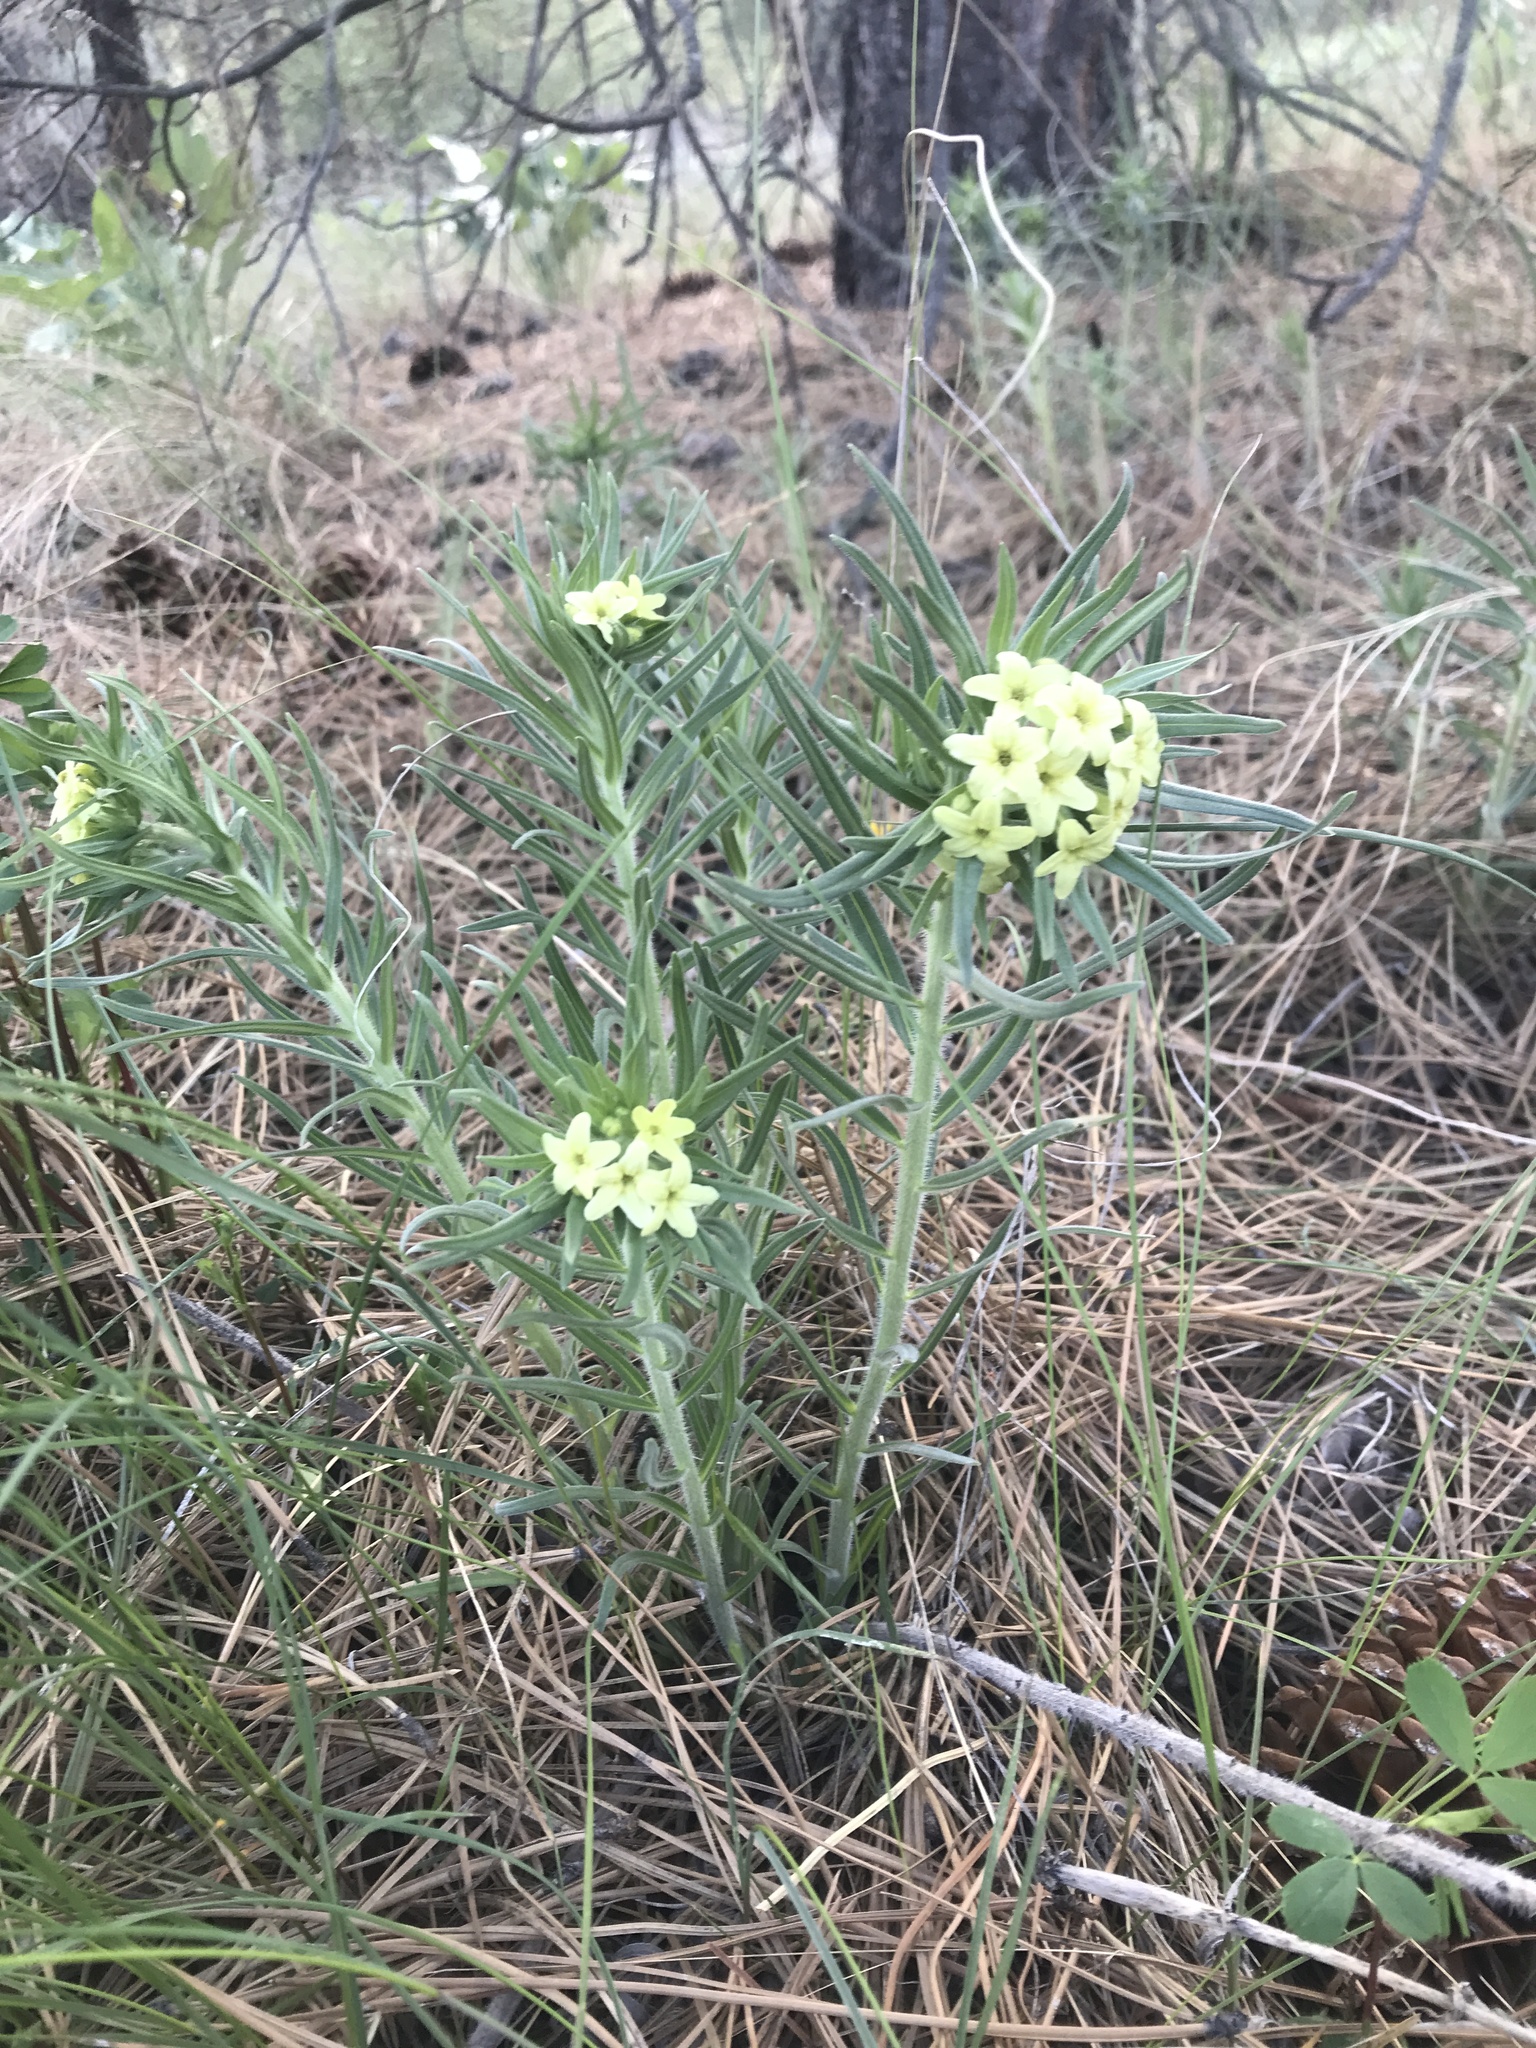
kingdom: Plantae
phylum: Tracheophyta
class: Magnoliopsida
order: Boraginales
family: Boraginaceae
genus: Lithospermum
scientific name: Lithospermum ruderale
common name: Western gromwell
